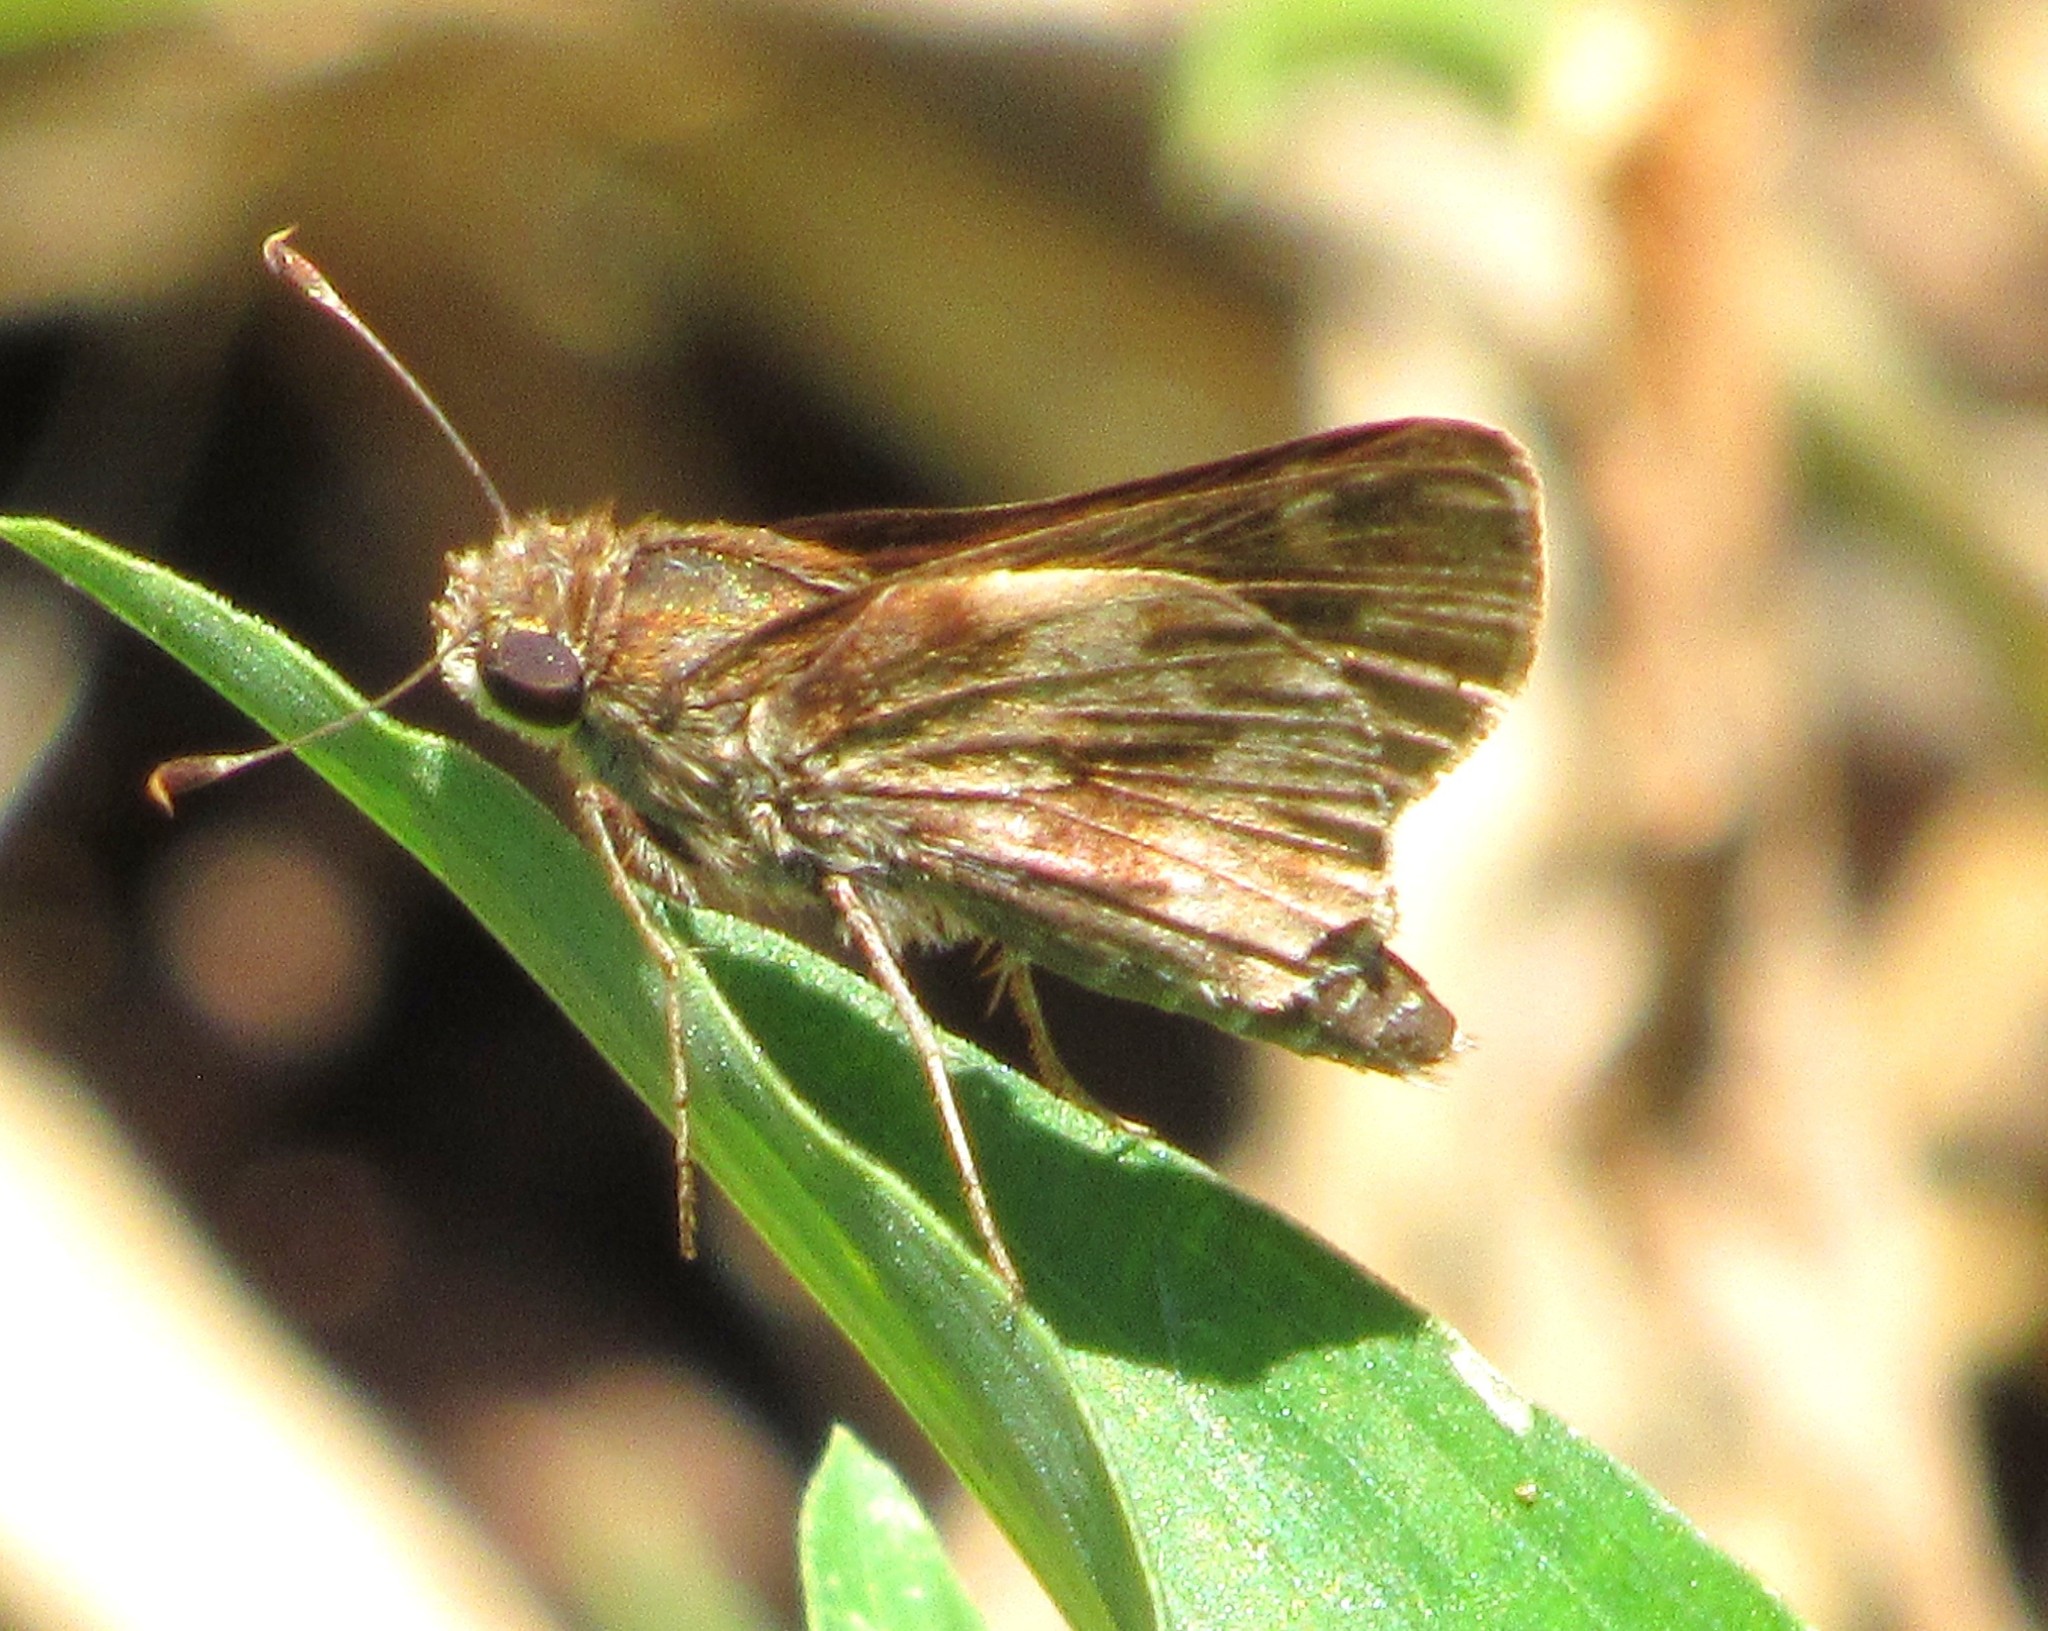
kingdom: Animalia
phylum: Arthropoda
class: Insecta
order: Lepidoptera
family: Hesperiidae
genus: Pompeius
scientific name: Pompeius pompeius
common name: Pompeius skipper
